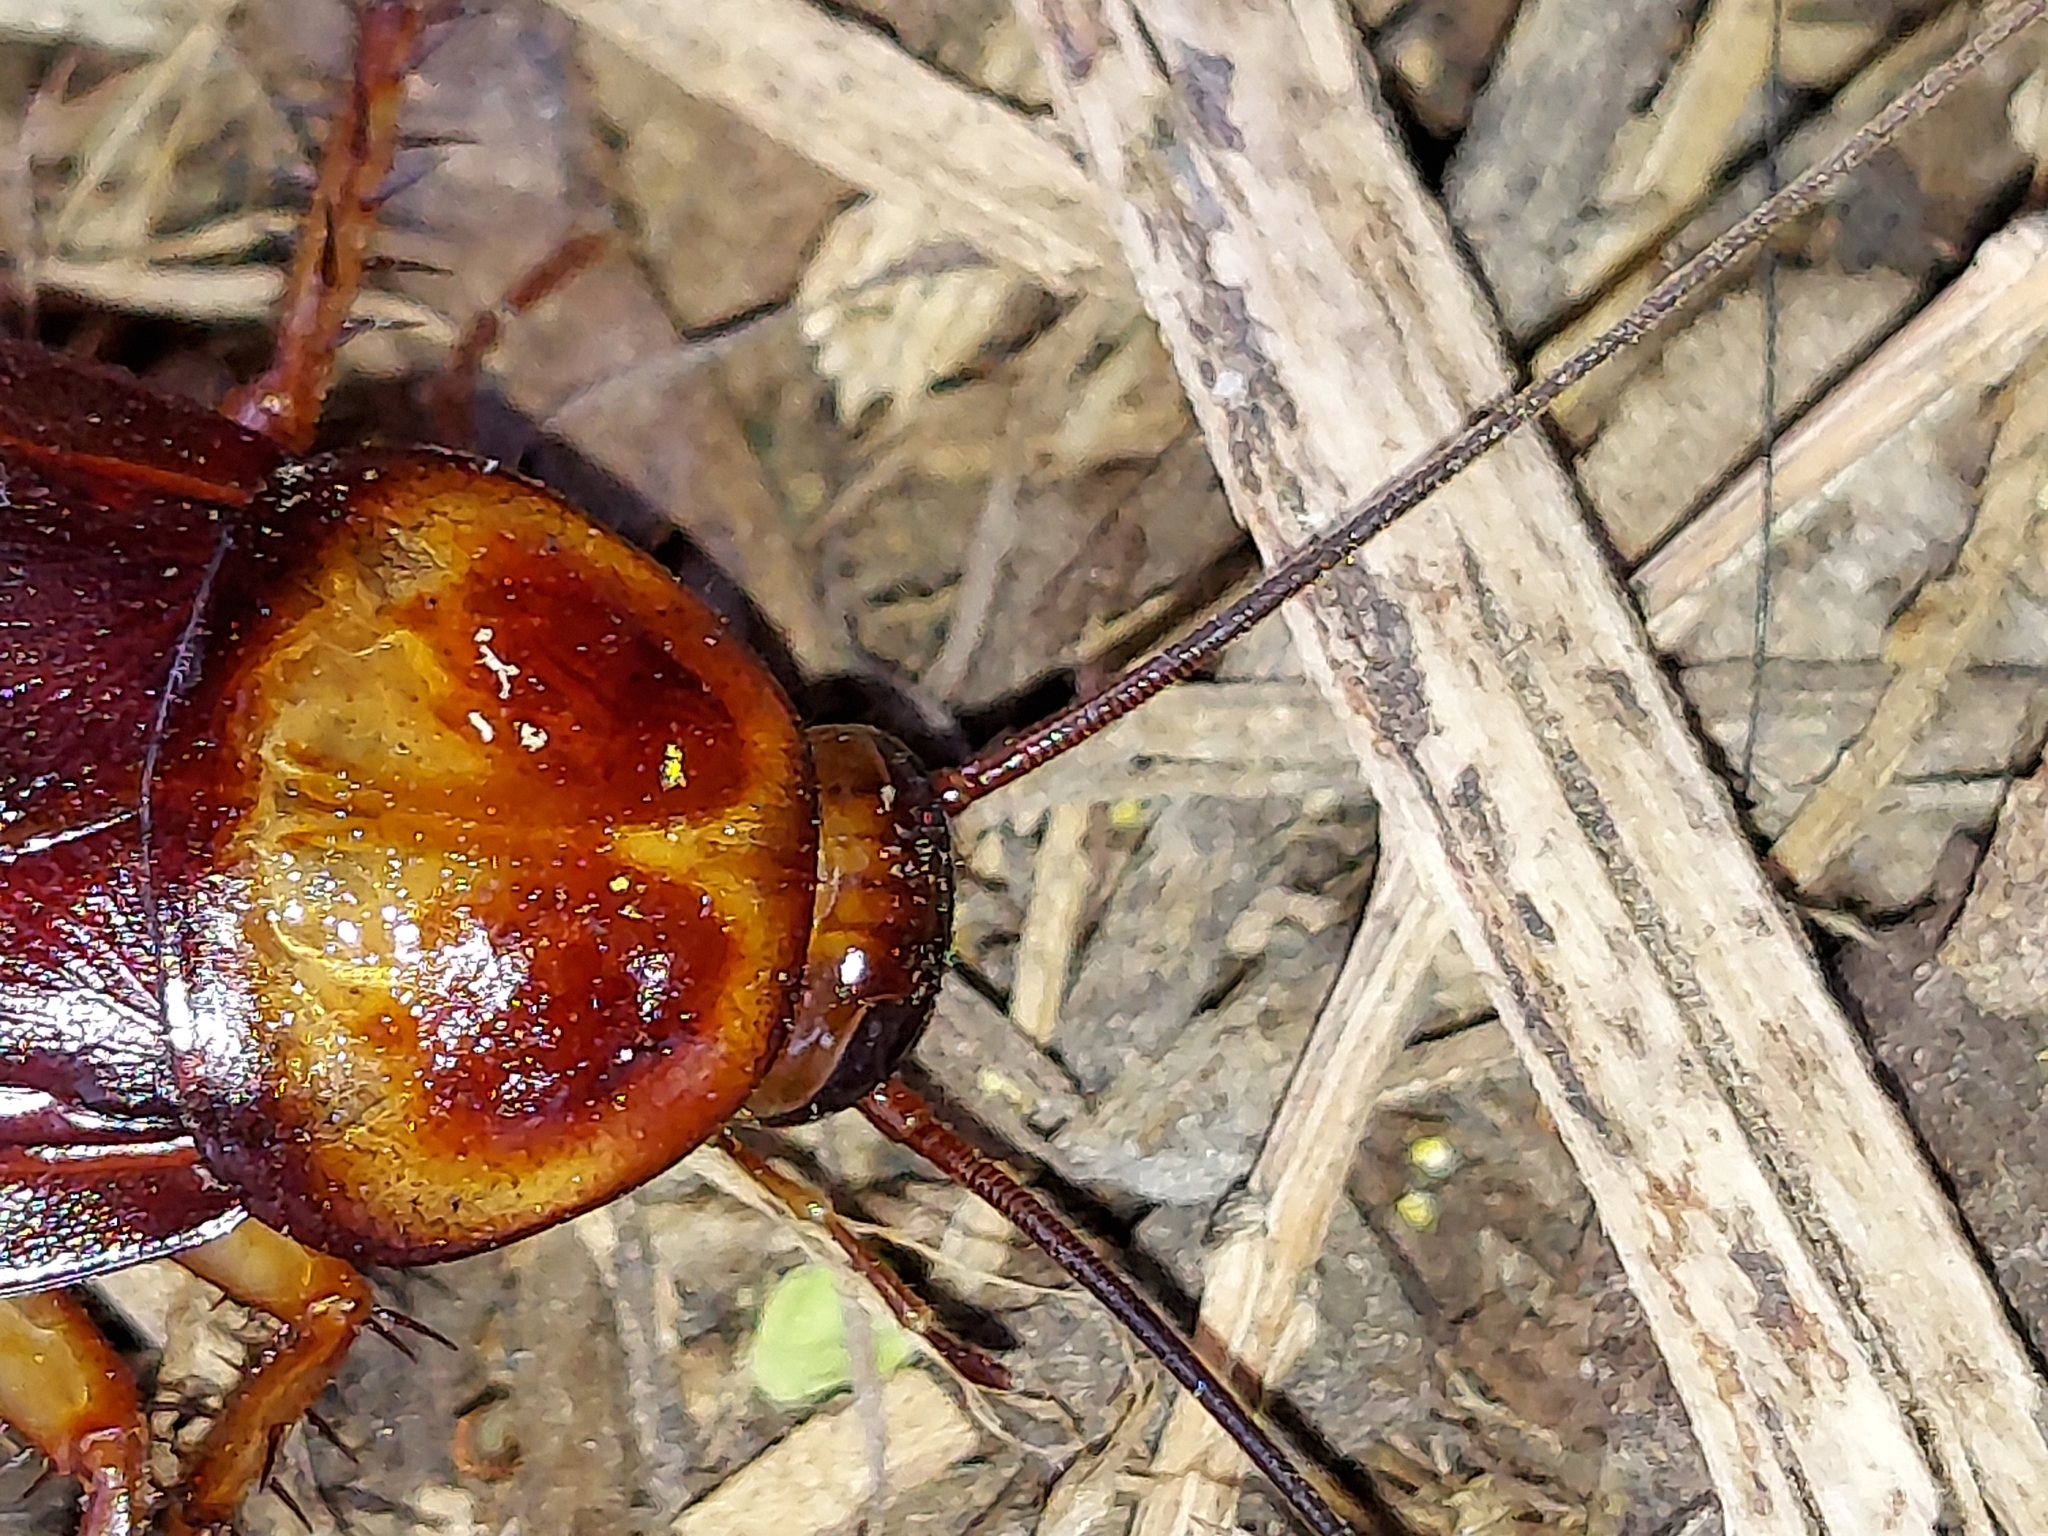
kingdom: Animalia
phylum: Arthropoda
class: Insecta
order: Blattodea
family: Blattidae
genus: Periplaneta
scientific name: Periplaneta americana
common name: American cockroach
